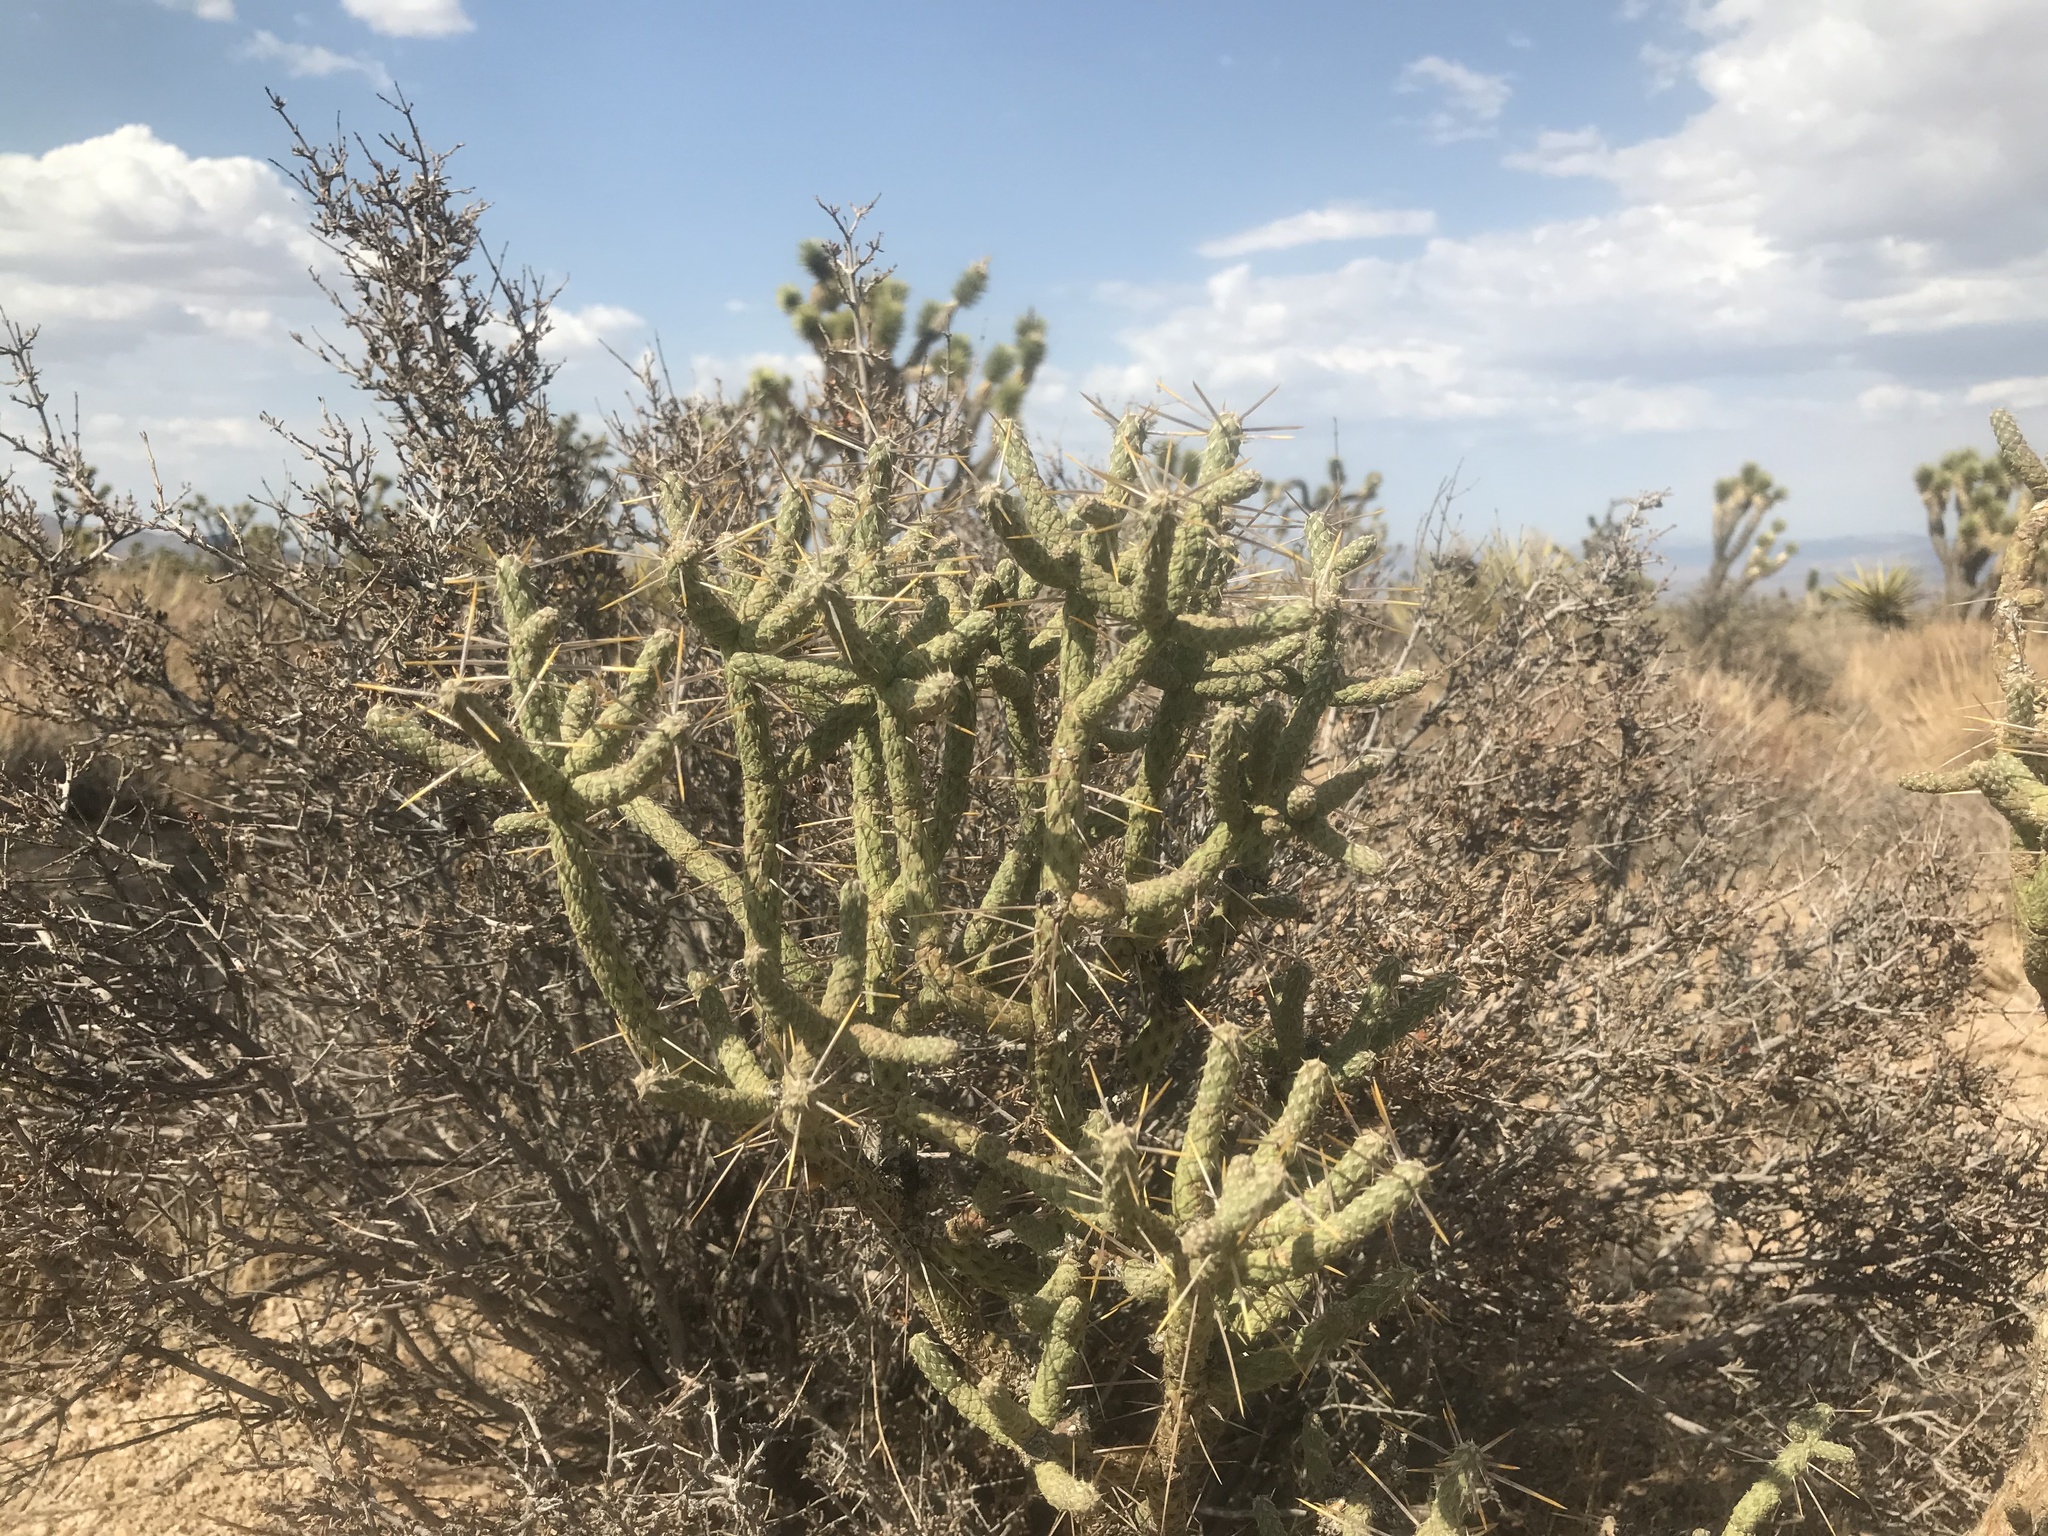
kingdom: Plantae
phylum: Tracheophyta
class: Magnoliopsida
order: Caryophyllales
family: Cactaceae
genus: Cylindropuntia
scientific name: Cylindropuntia ramosissima
